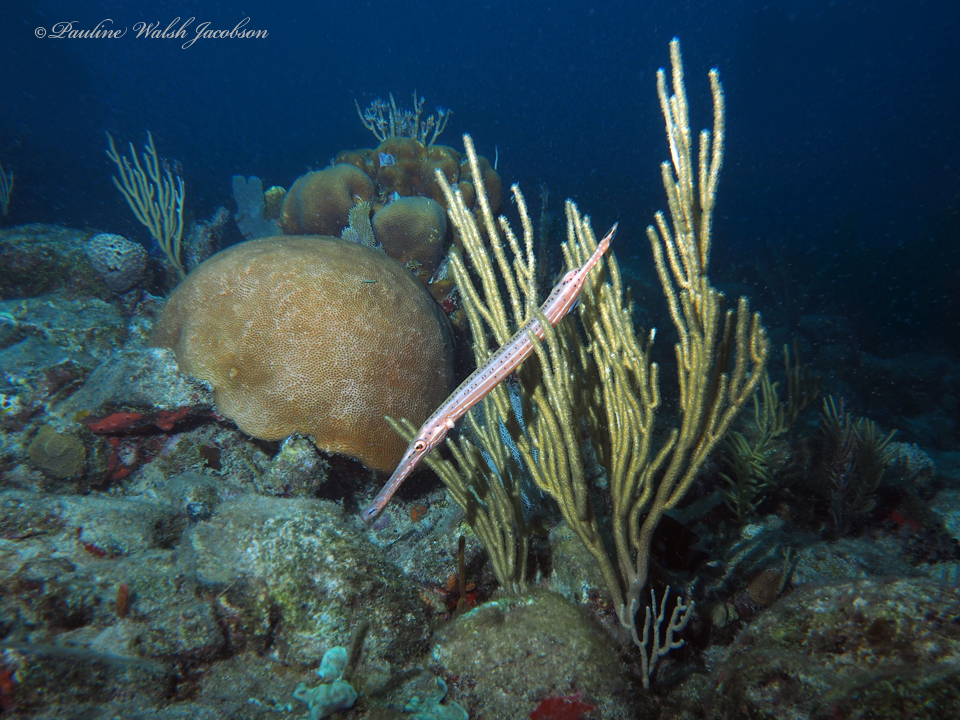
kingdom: Animalia
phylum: Chordata
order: Syngnathiformes
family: Aulostomidae
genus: Aulostomus
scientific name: Aulostomus maculatus
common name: West atlantic trumpetfish
